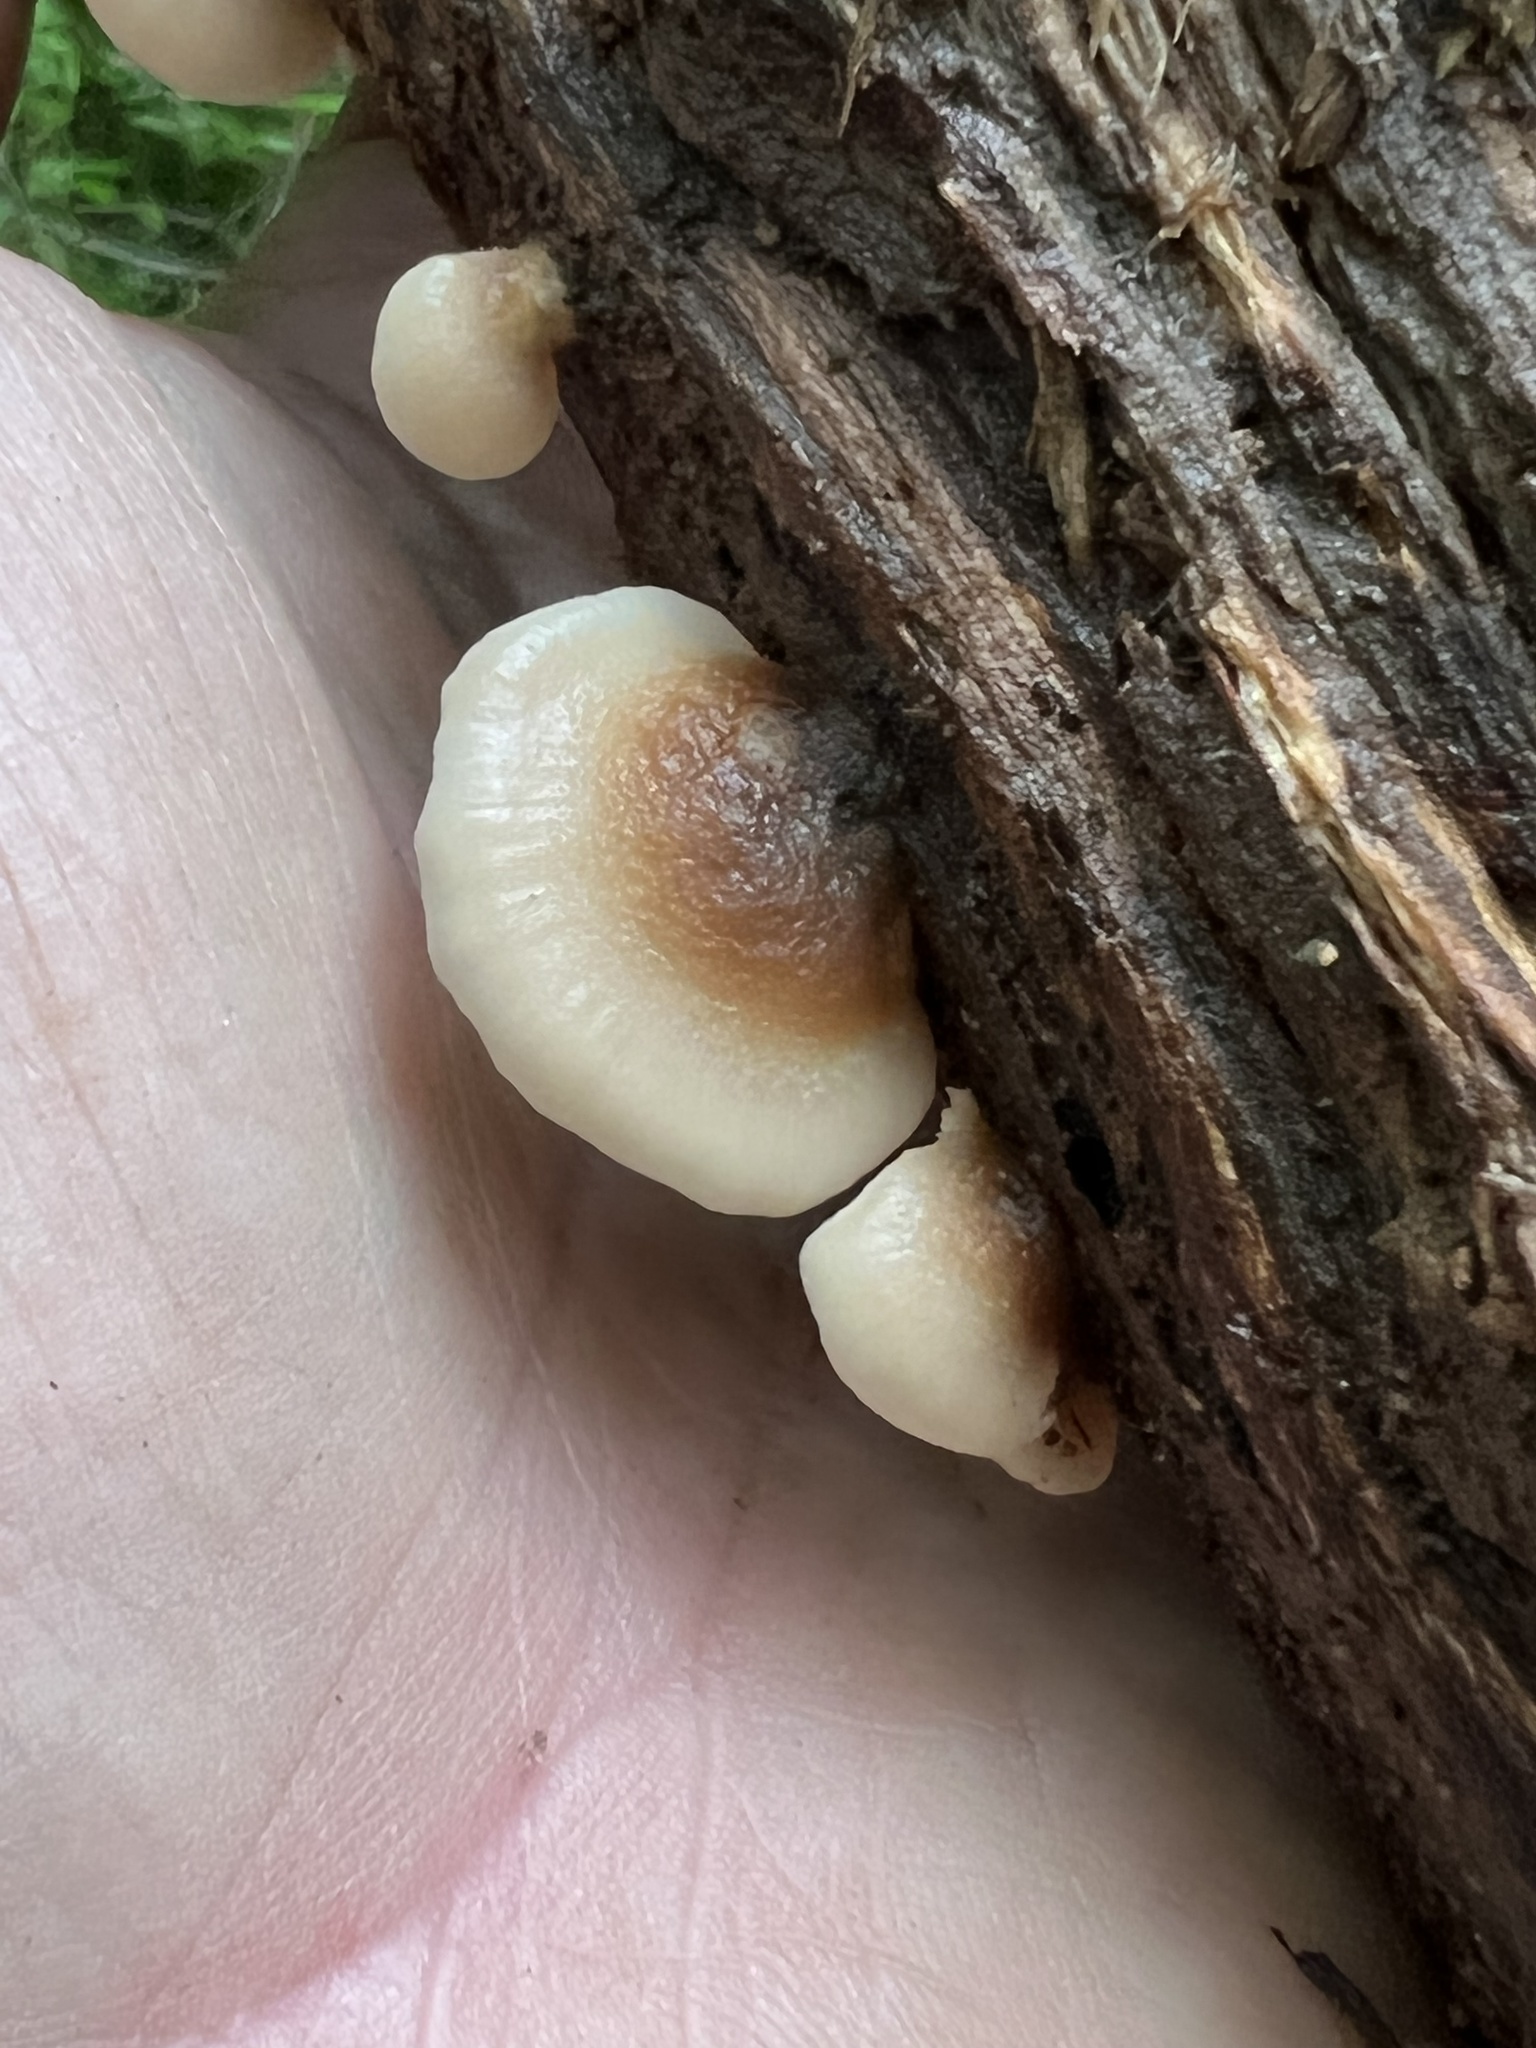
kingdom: Fungi
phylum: Basidiomycota
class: Agaricomycetes
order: Russulales
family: Auriscalpiaceae
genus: Lentinellus
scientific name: Lentinellus ursinus
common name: Bear lentinus
